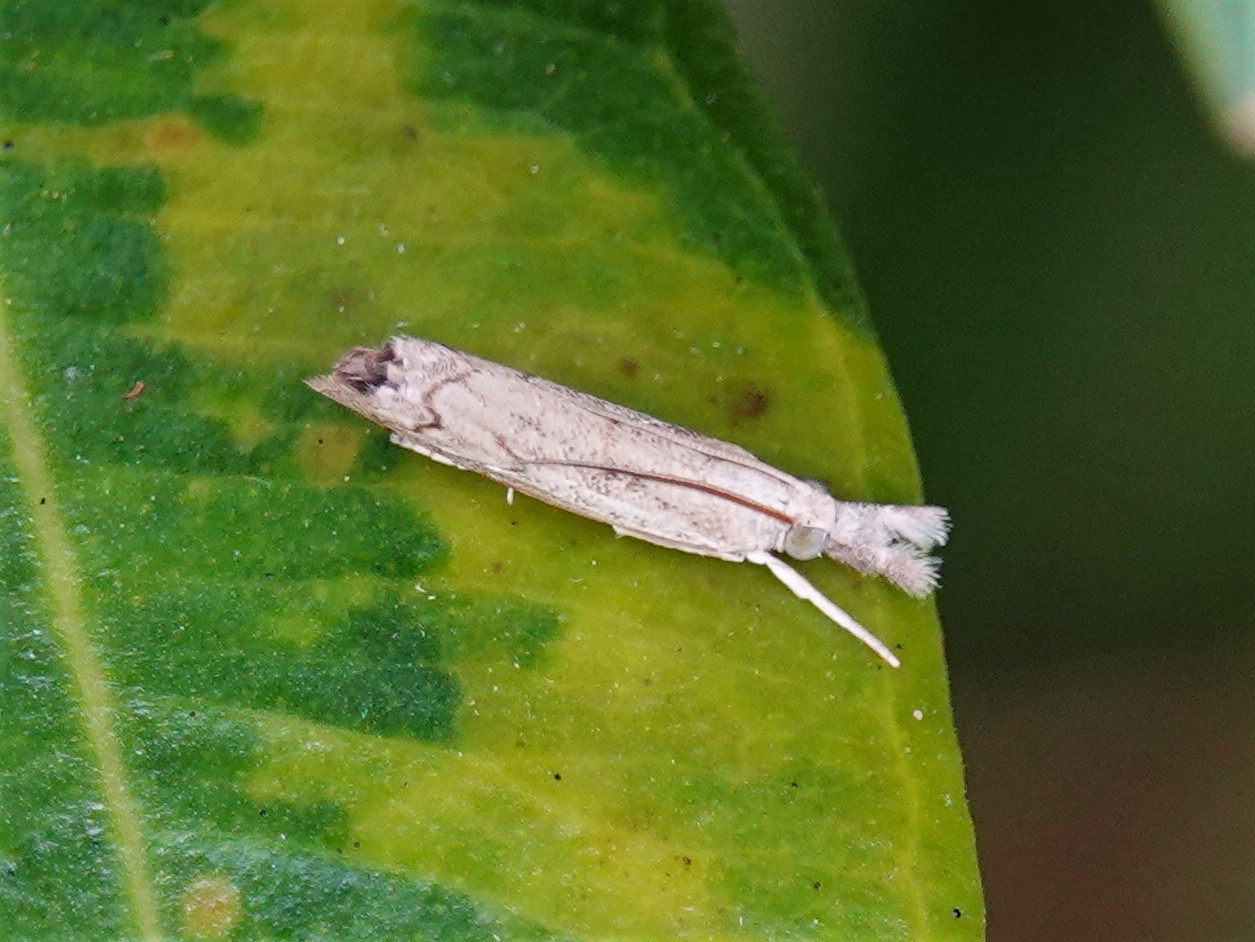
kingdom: Animalia
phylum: Arthropoda
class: Insecta
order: Lepidoptera
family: Crambidae
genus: Culladia
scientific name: Culladia cuneiferellus
